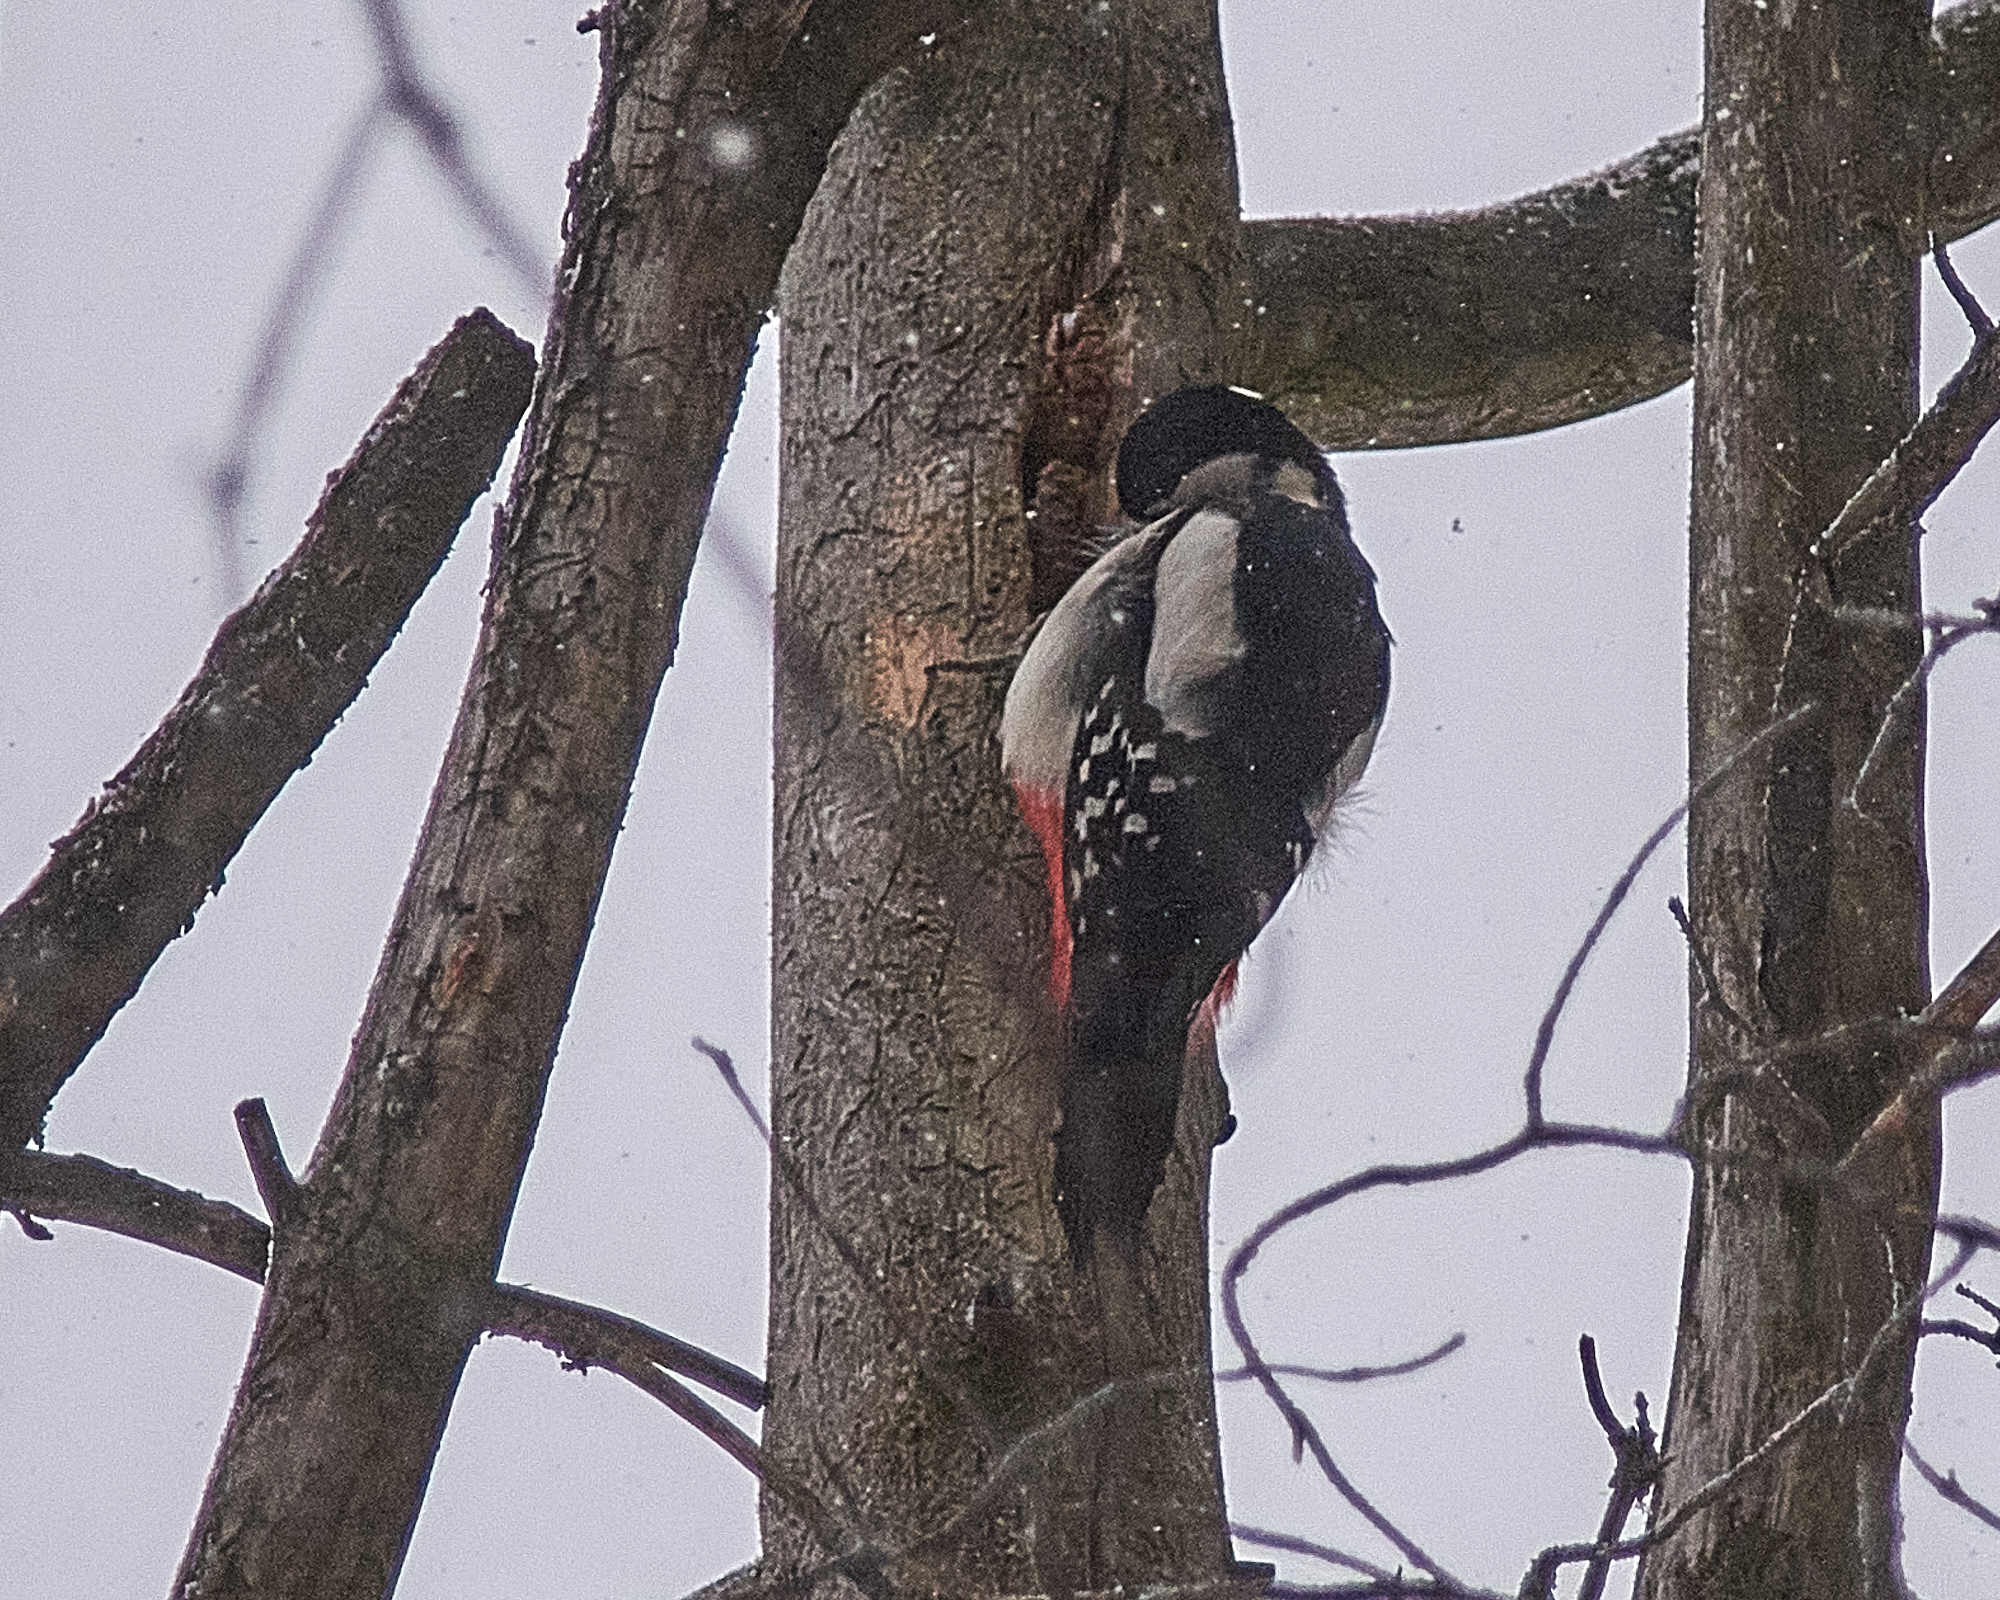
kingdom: Animalia
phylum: Chordata
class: Aves
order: Piciformes
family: Picidae
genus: Dendrocopos
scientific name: Dendrocopos major
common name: Great spotted woodpecker
